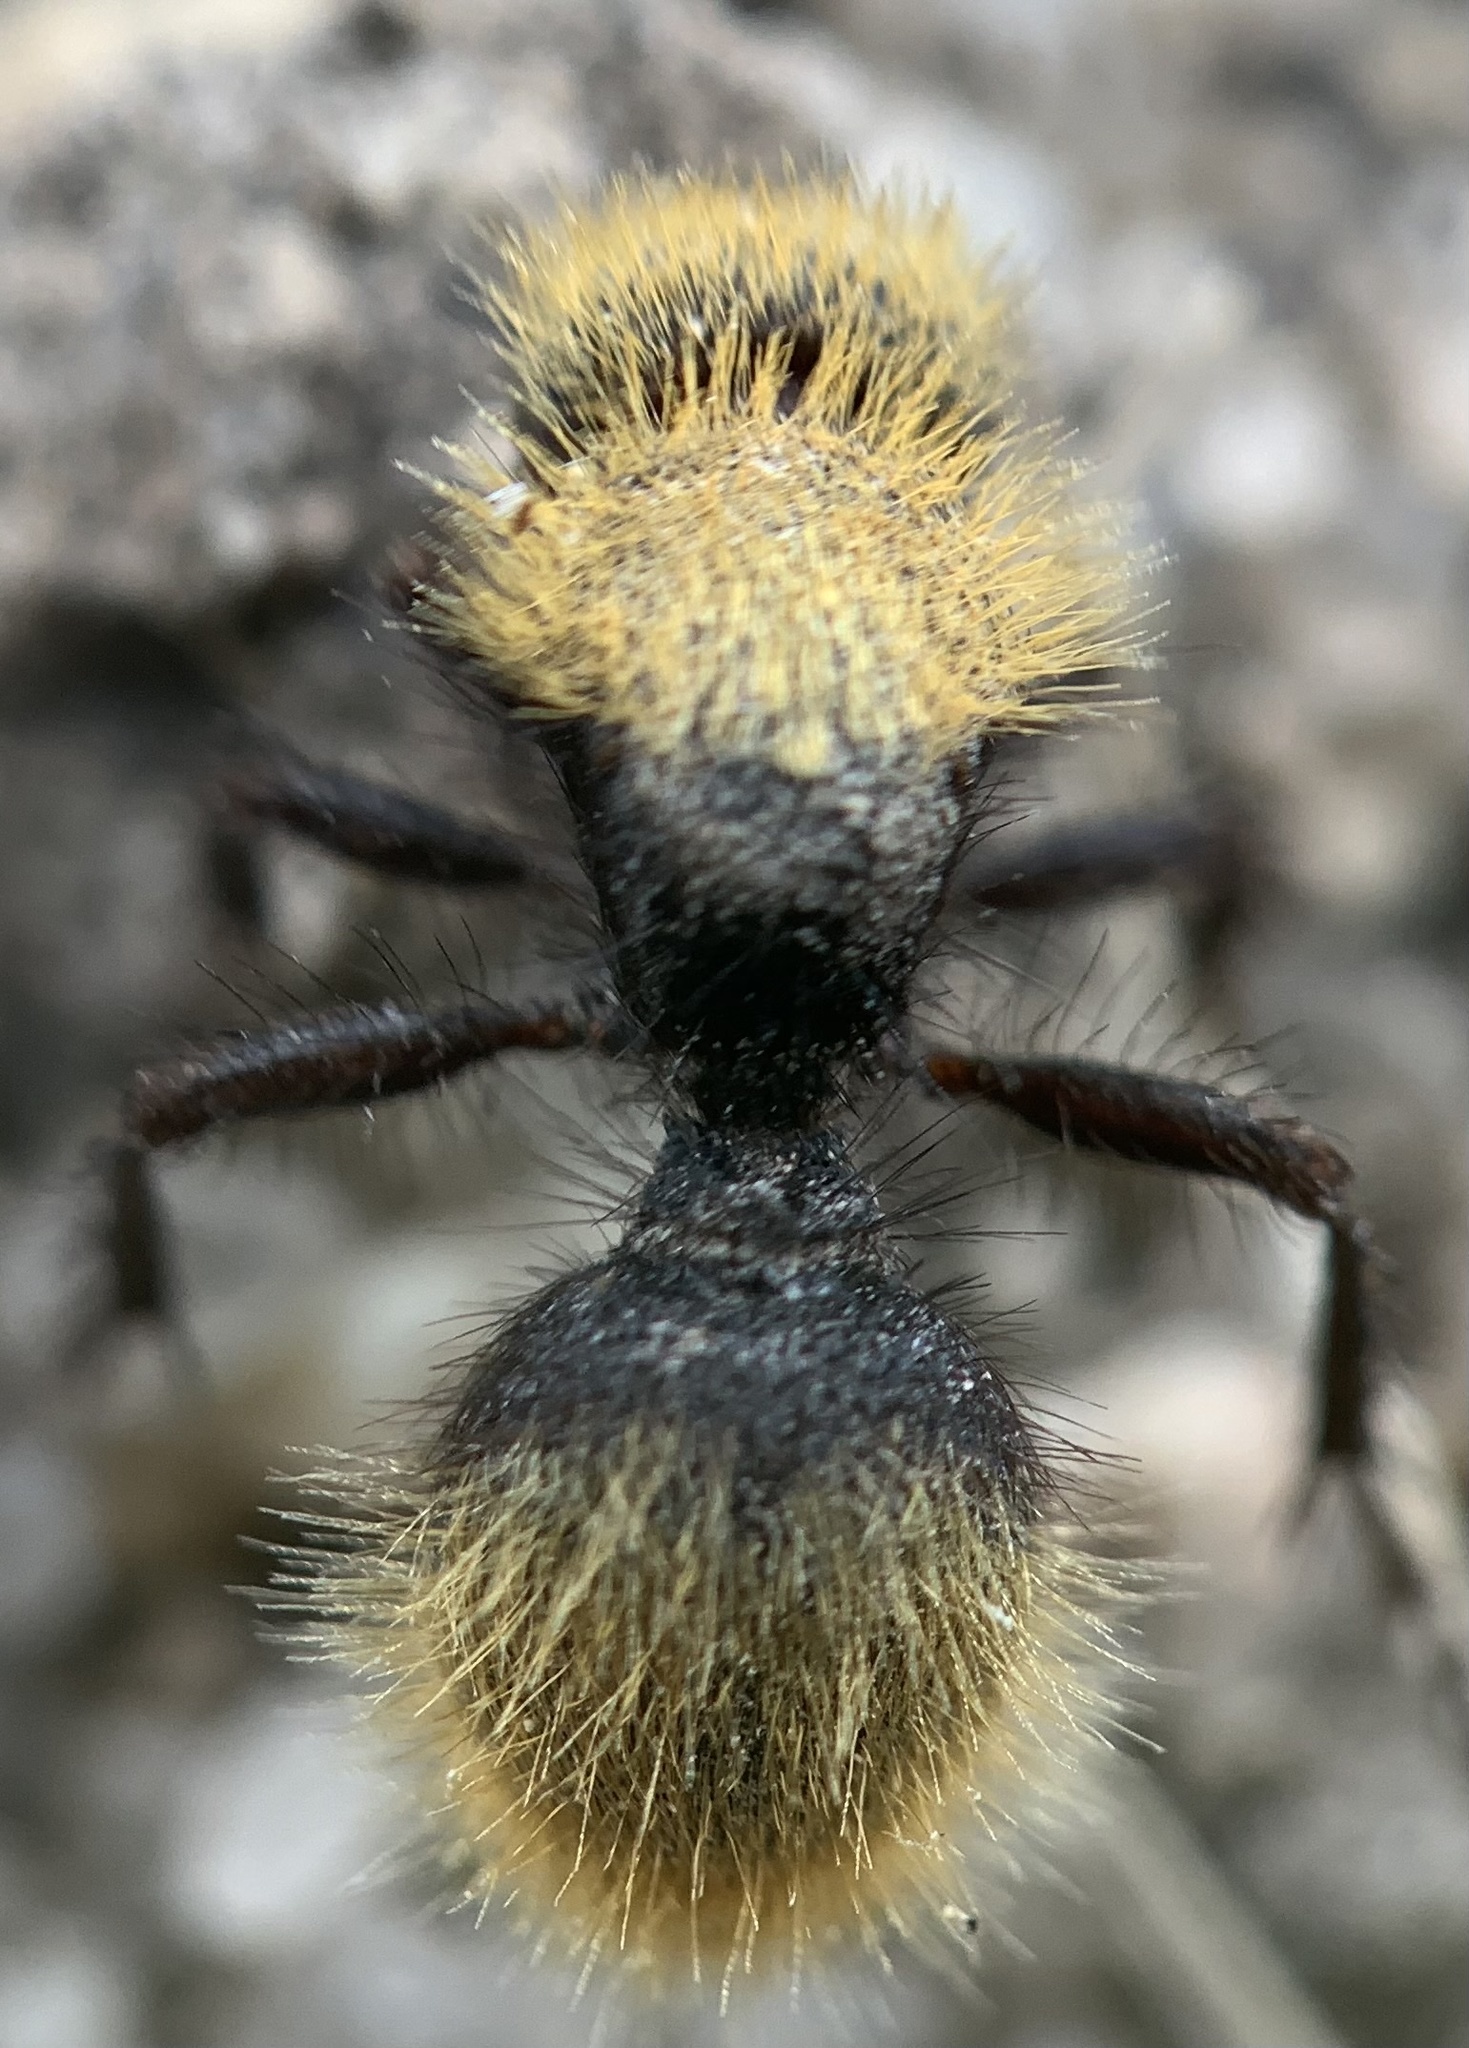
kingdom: Animalia
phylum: Arthropoda
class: Insecta
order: Hymenoptera
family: Mutillidae
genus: Dasymutilla
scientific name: Dasymutilla
